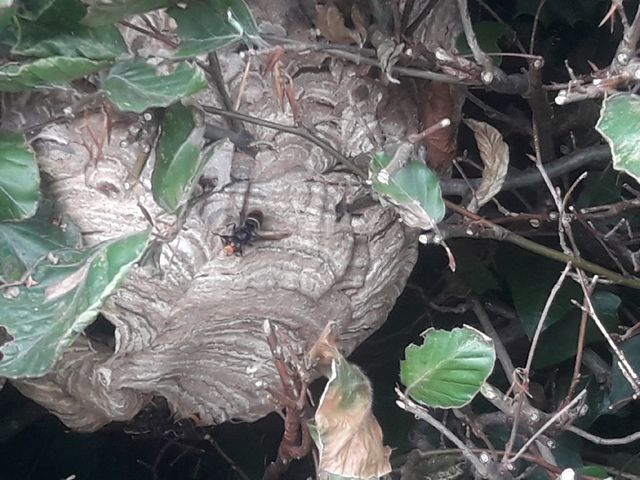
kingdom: Animalia
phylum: Arthropoda
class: Insecta
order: Hymenoptera
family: Vespidae
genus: Vespa
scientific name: Vespa velutina
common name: Asian hornet
